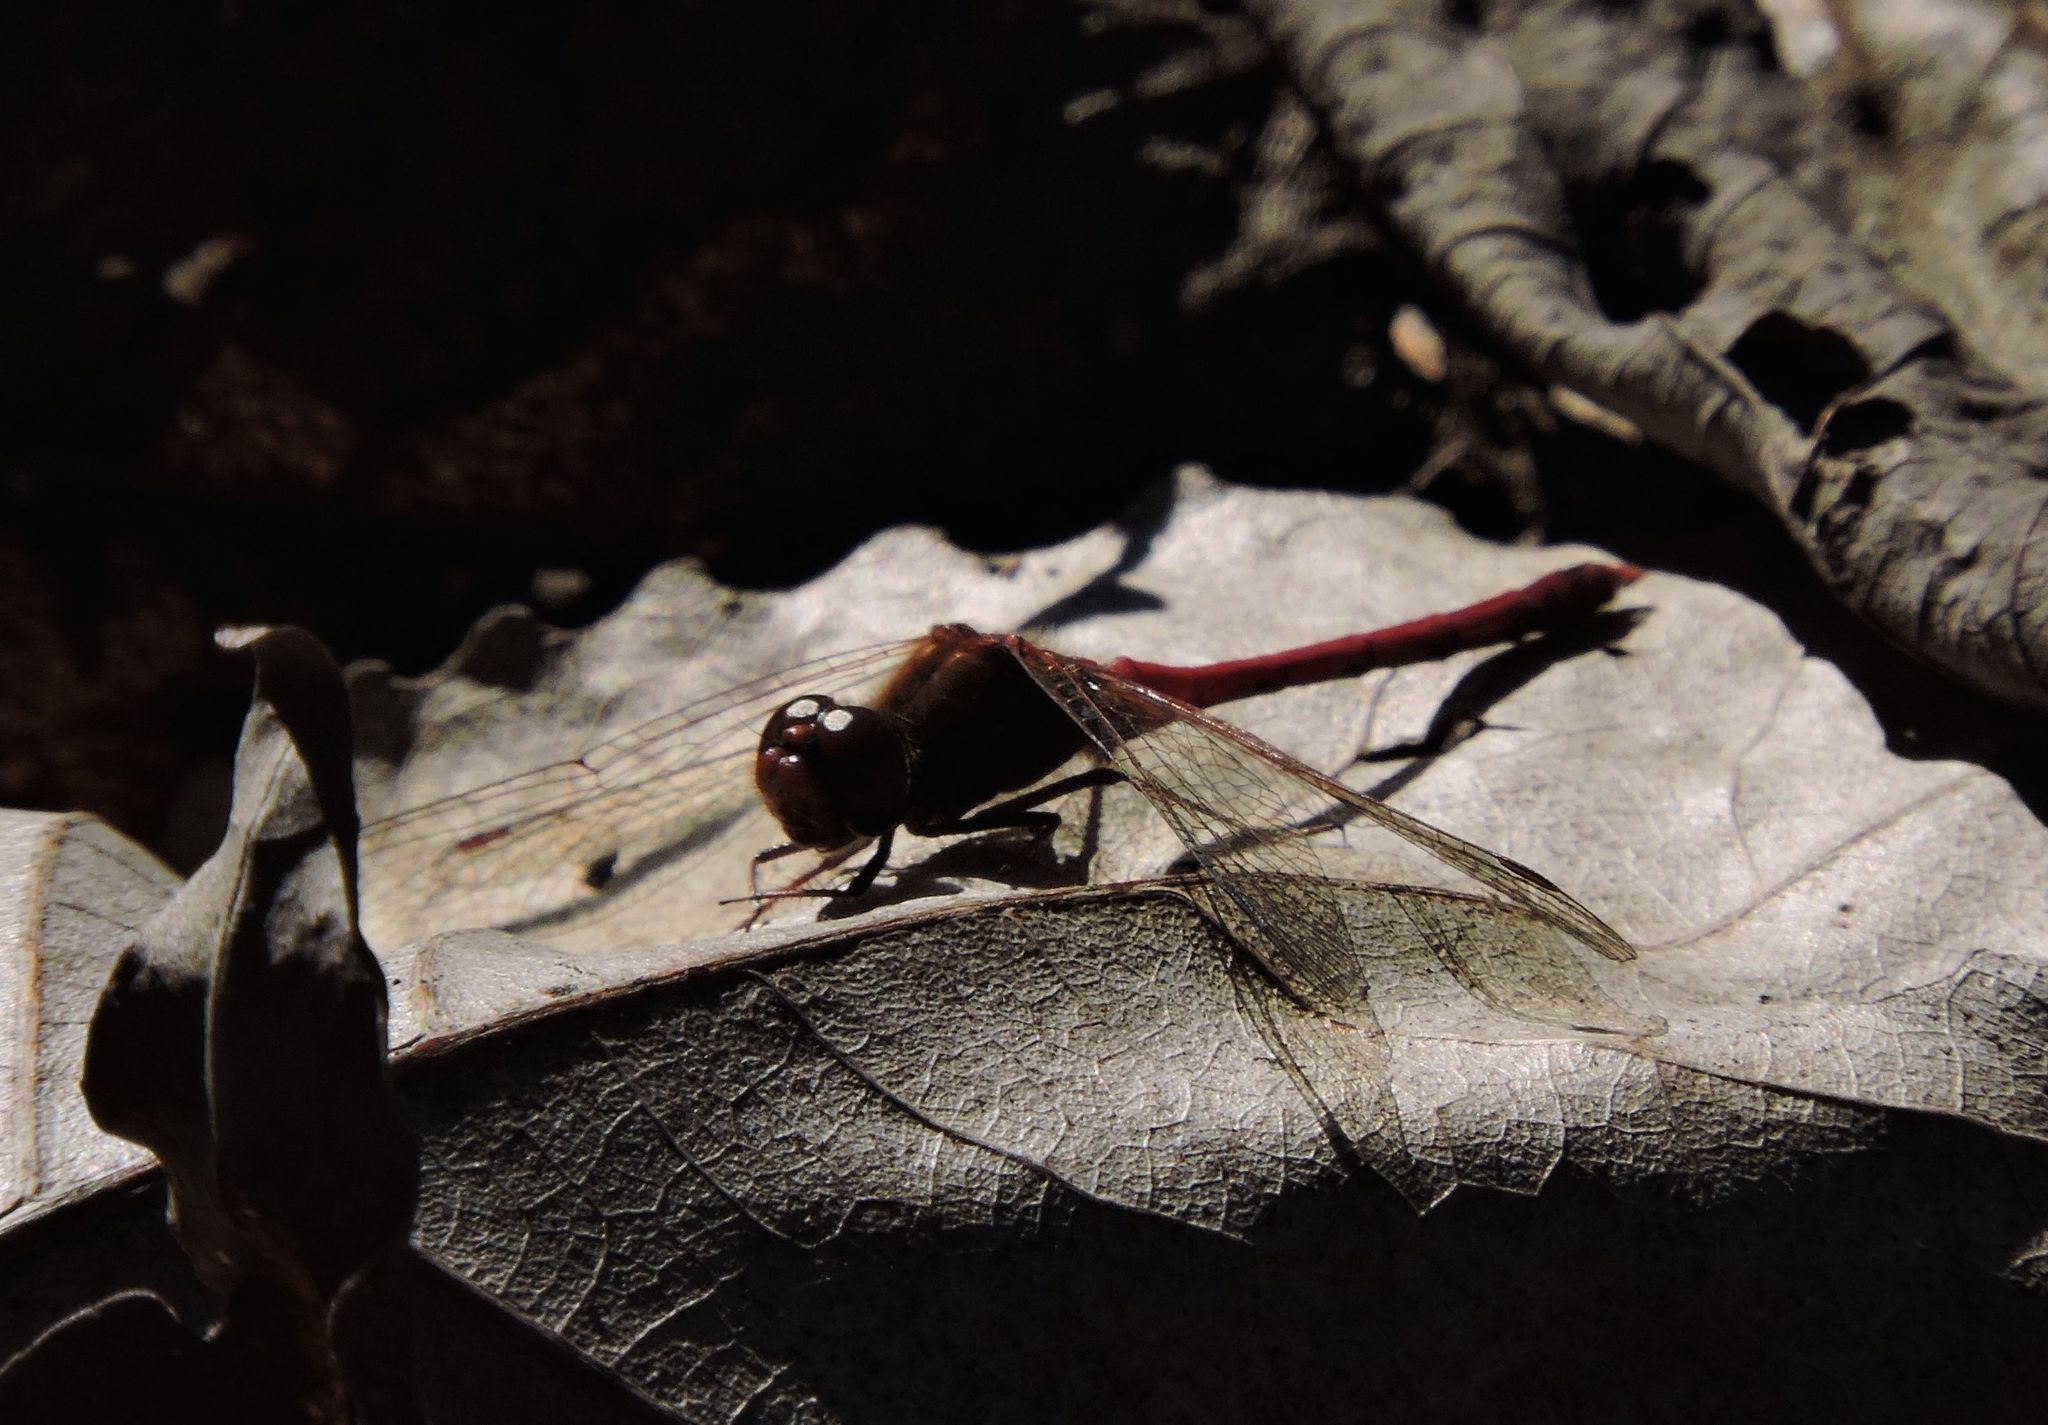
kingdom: Animalia
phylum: Arthropoda
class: Insecta
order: Odonata
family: Libellulidae
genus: Sympetrum
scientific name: Sympetrum vicinum
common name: Autumn meadowhawk
